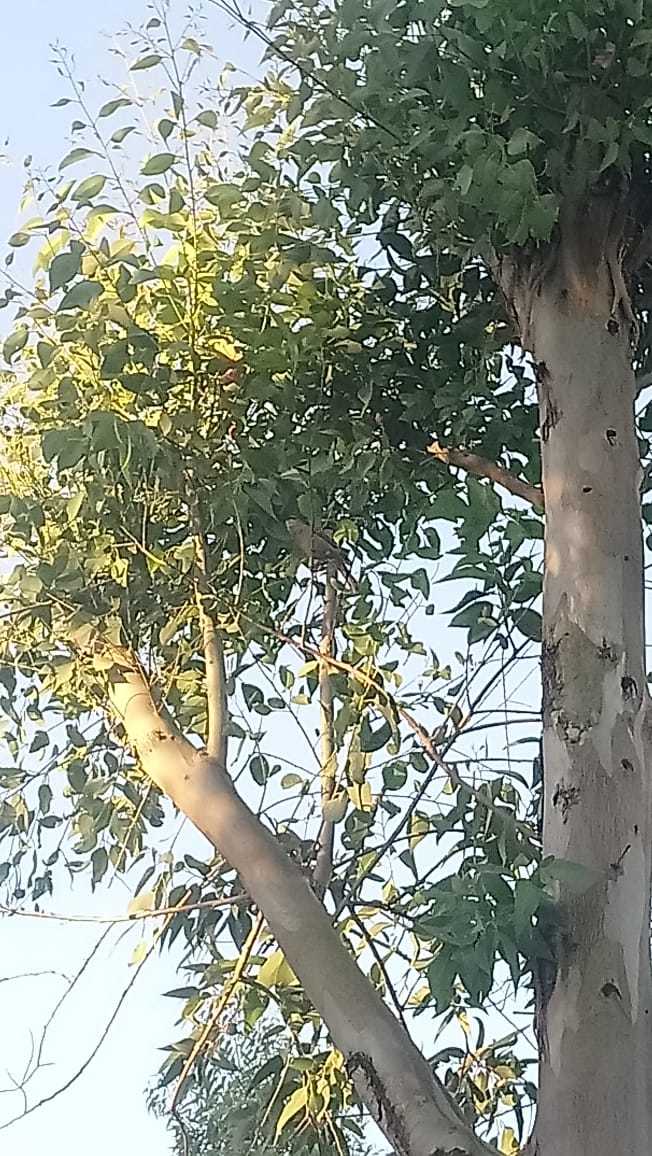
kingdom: Animalia
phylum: Chordata
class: Aves
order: Passeriformes
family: Icteridae
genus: Agelaioides
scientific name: Agelaioides badius
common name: Baywing
